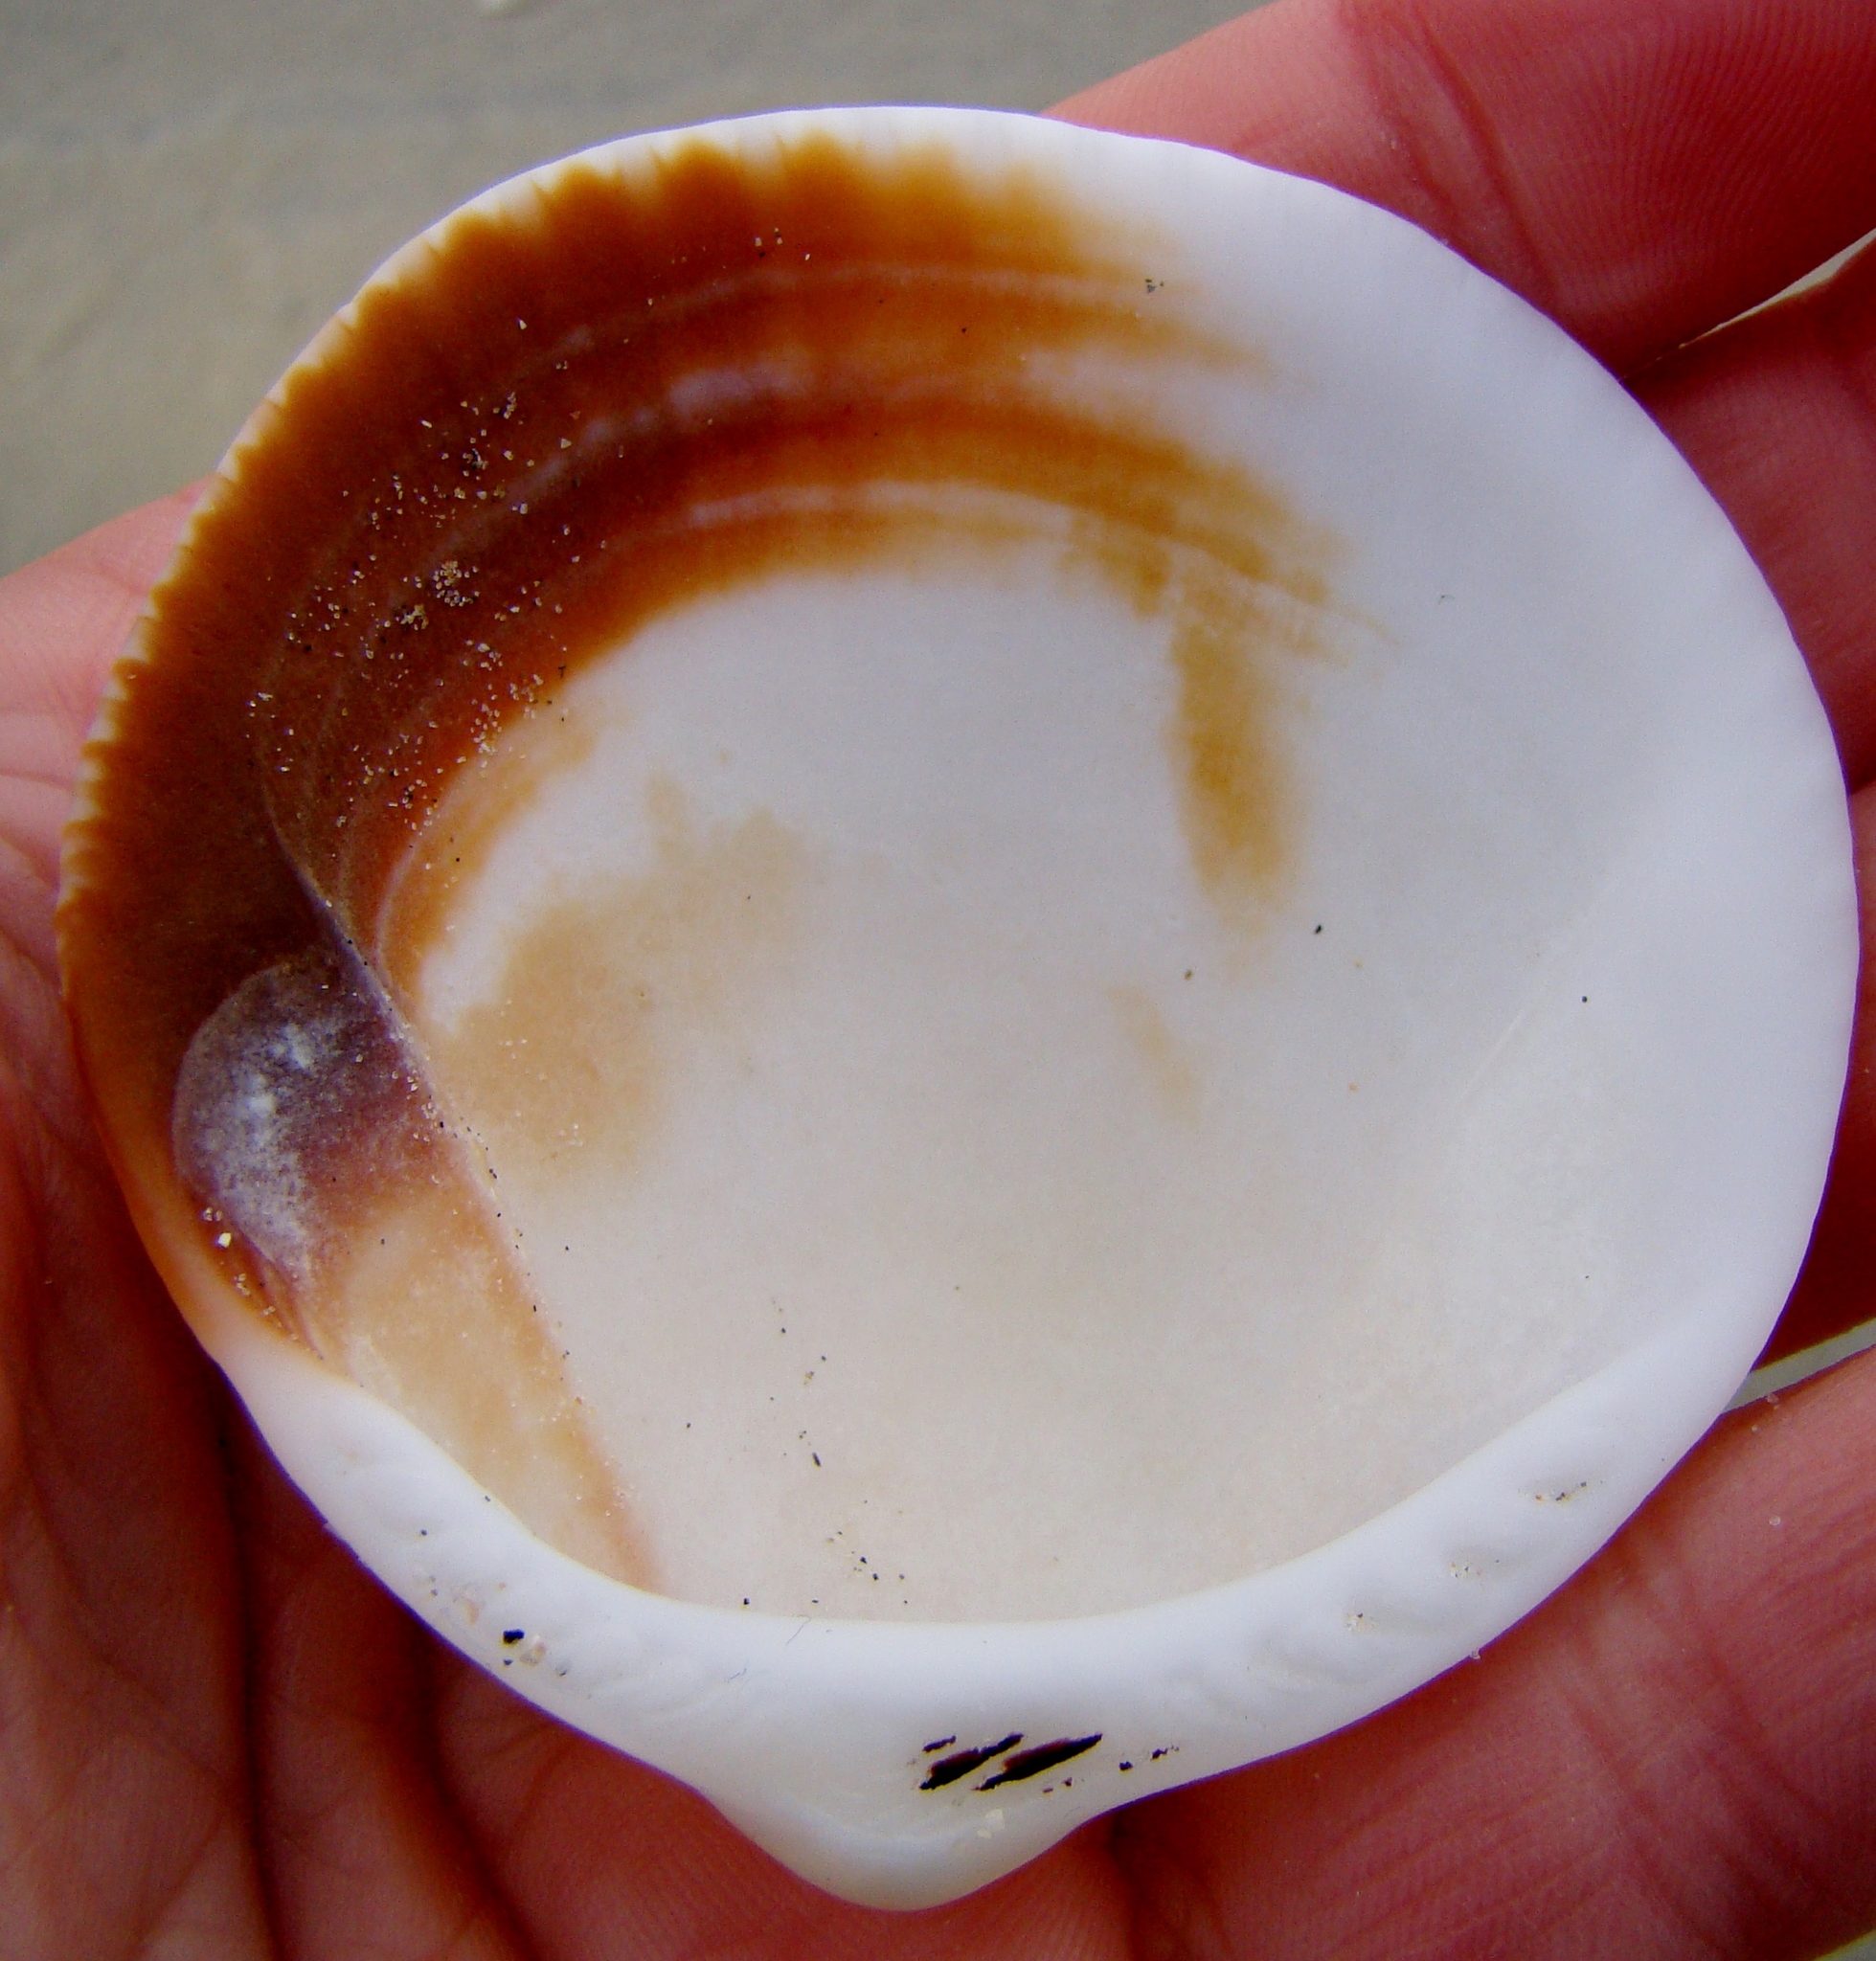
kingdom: Animalia
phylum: Mollusca
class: Bivalvia
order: Arcida
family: Glycymerididae
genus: Tucetona
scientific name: Tucetona laticostata
